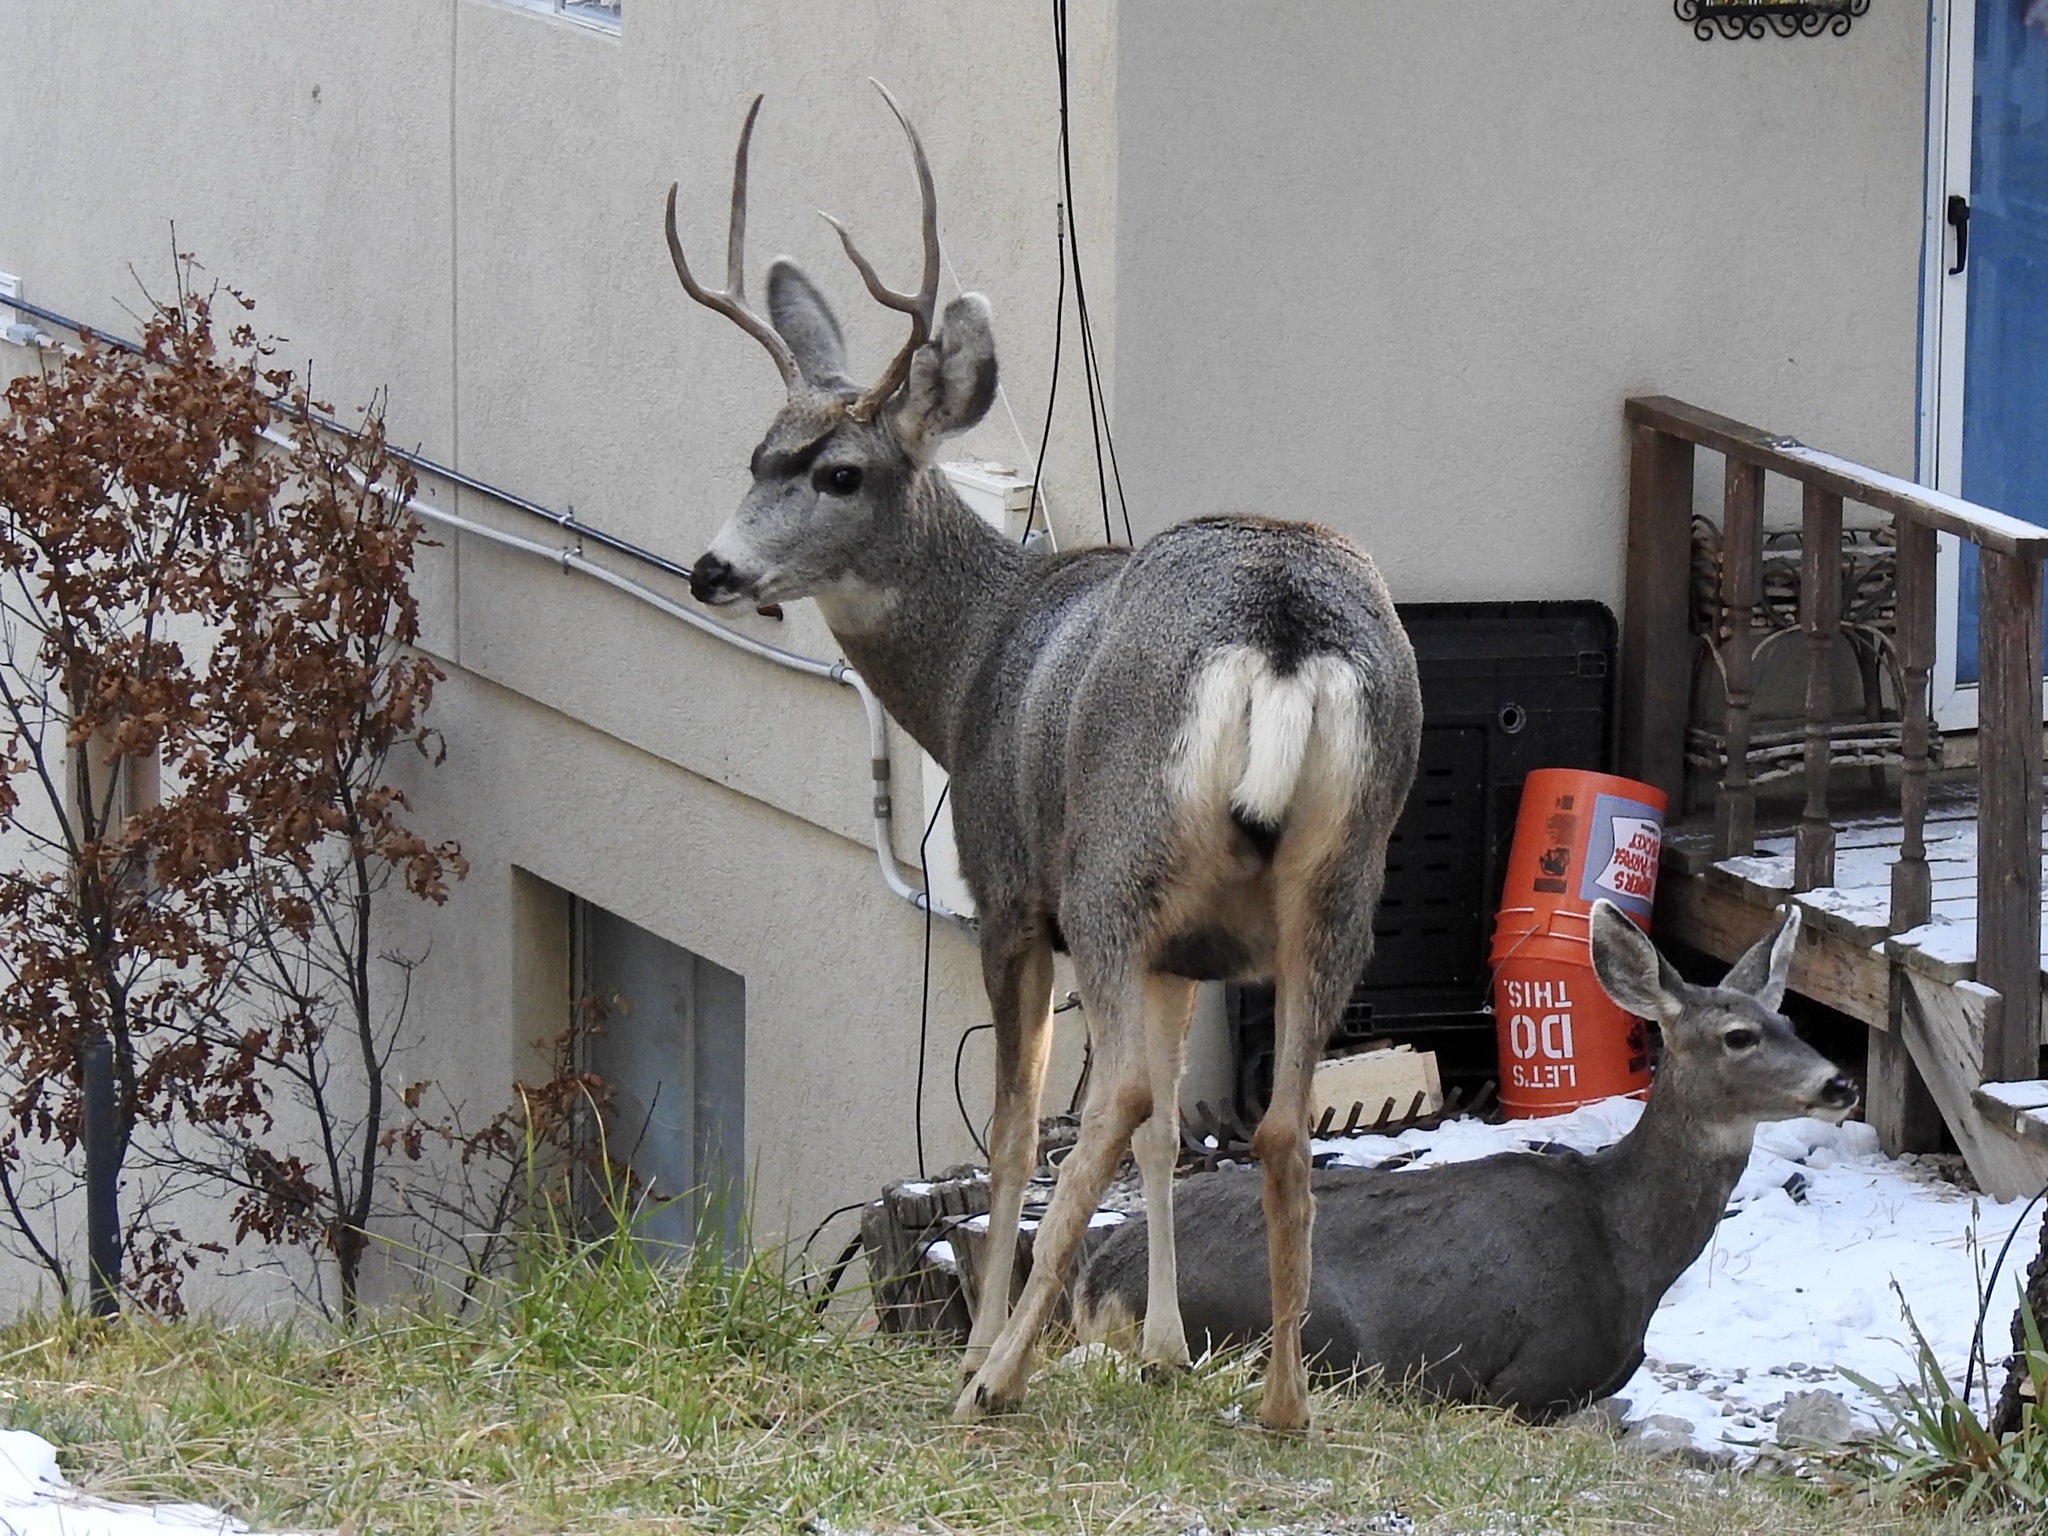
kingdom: Animalia
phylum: Chordata
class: Mammalia
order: Artiodactyla
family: Cervidae
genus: Odocoileus
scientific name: Odocoileus hemionus
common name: Mule deer
